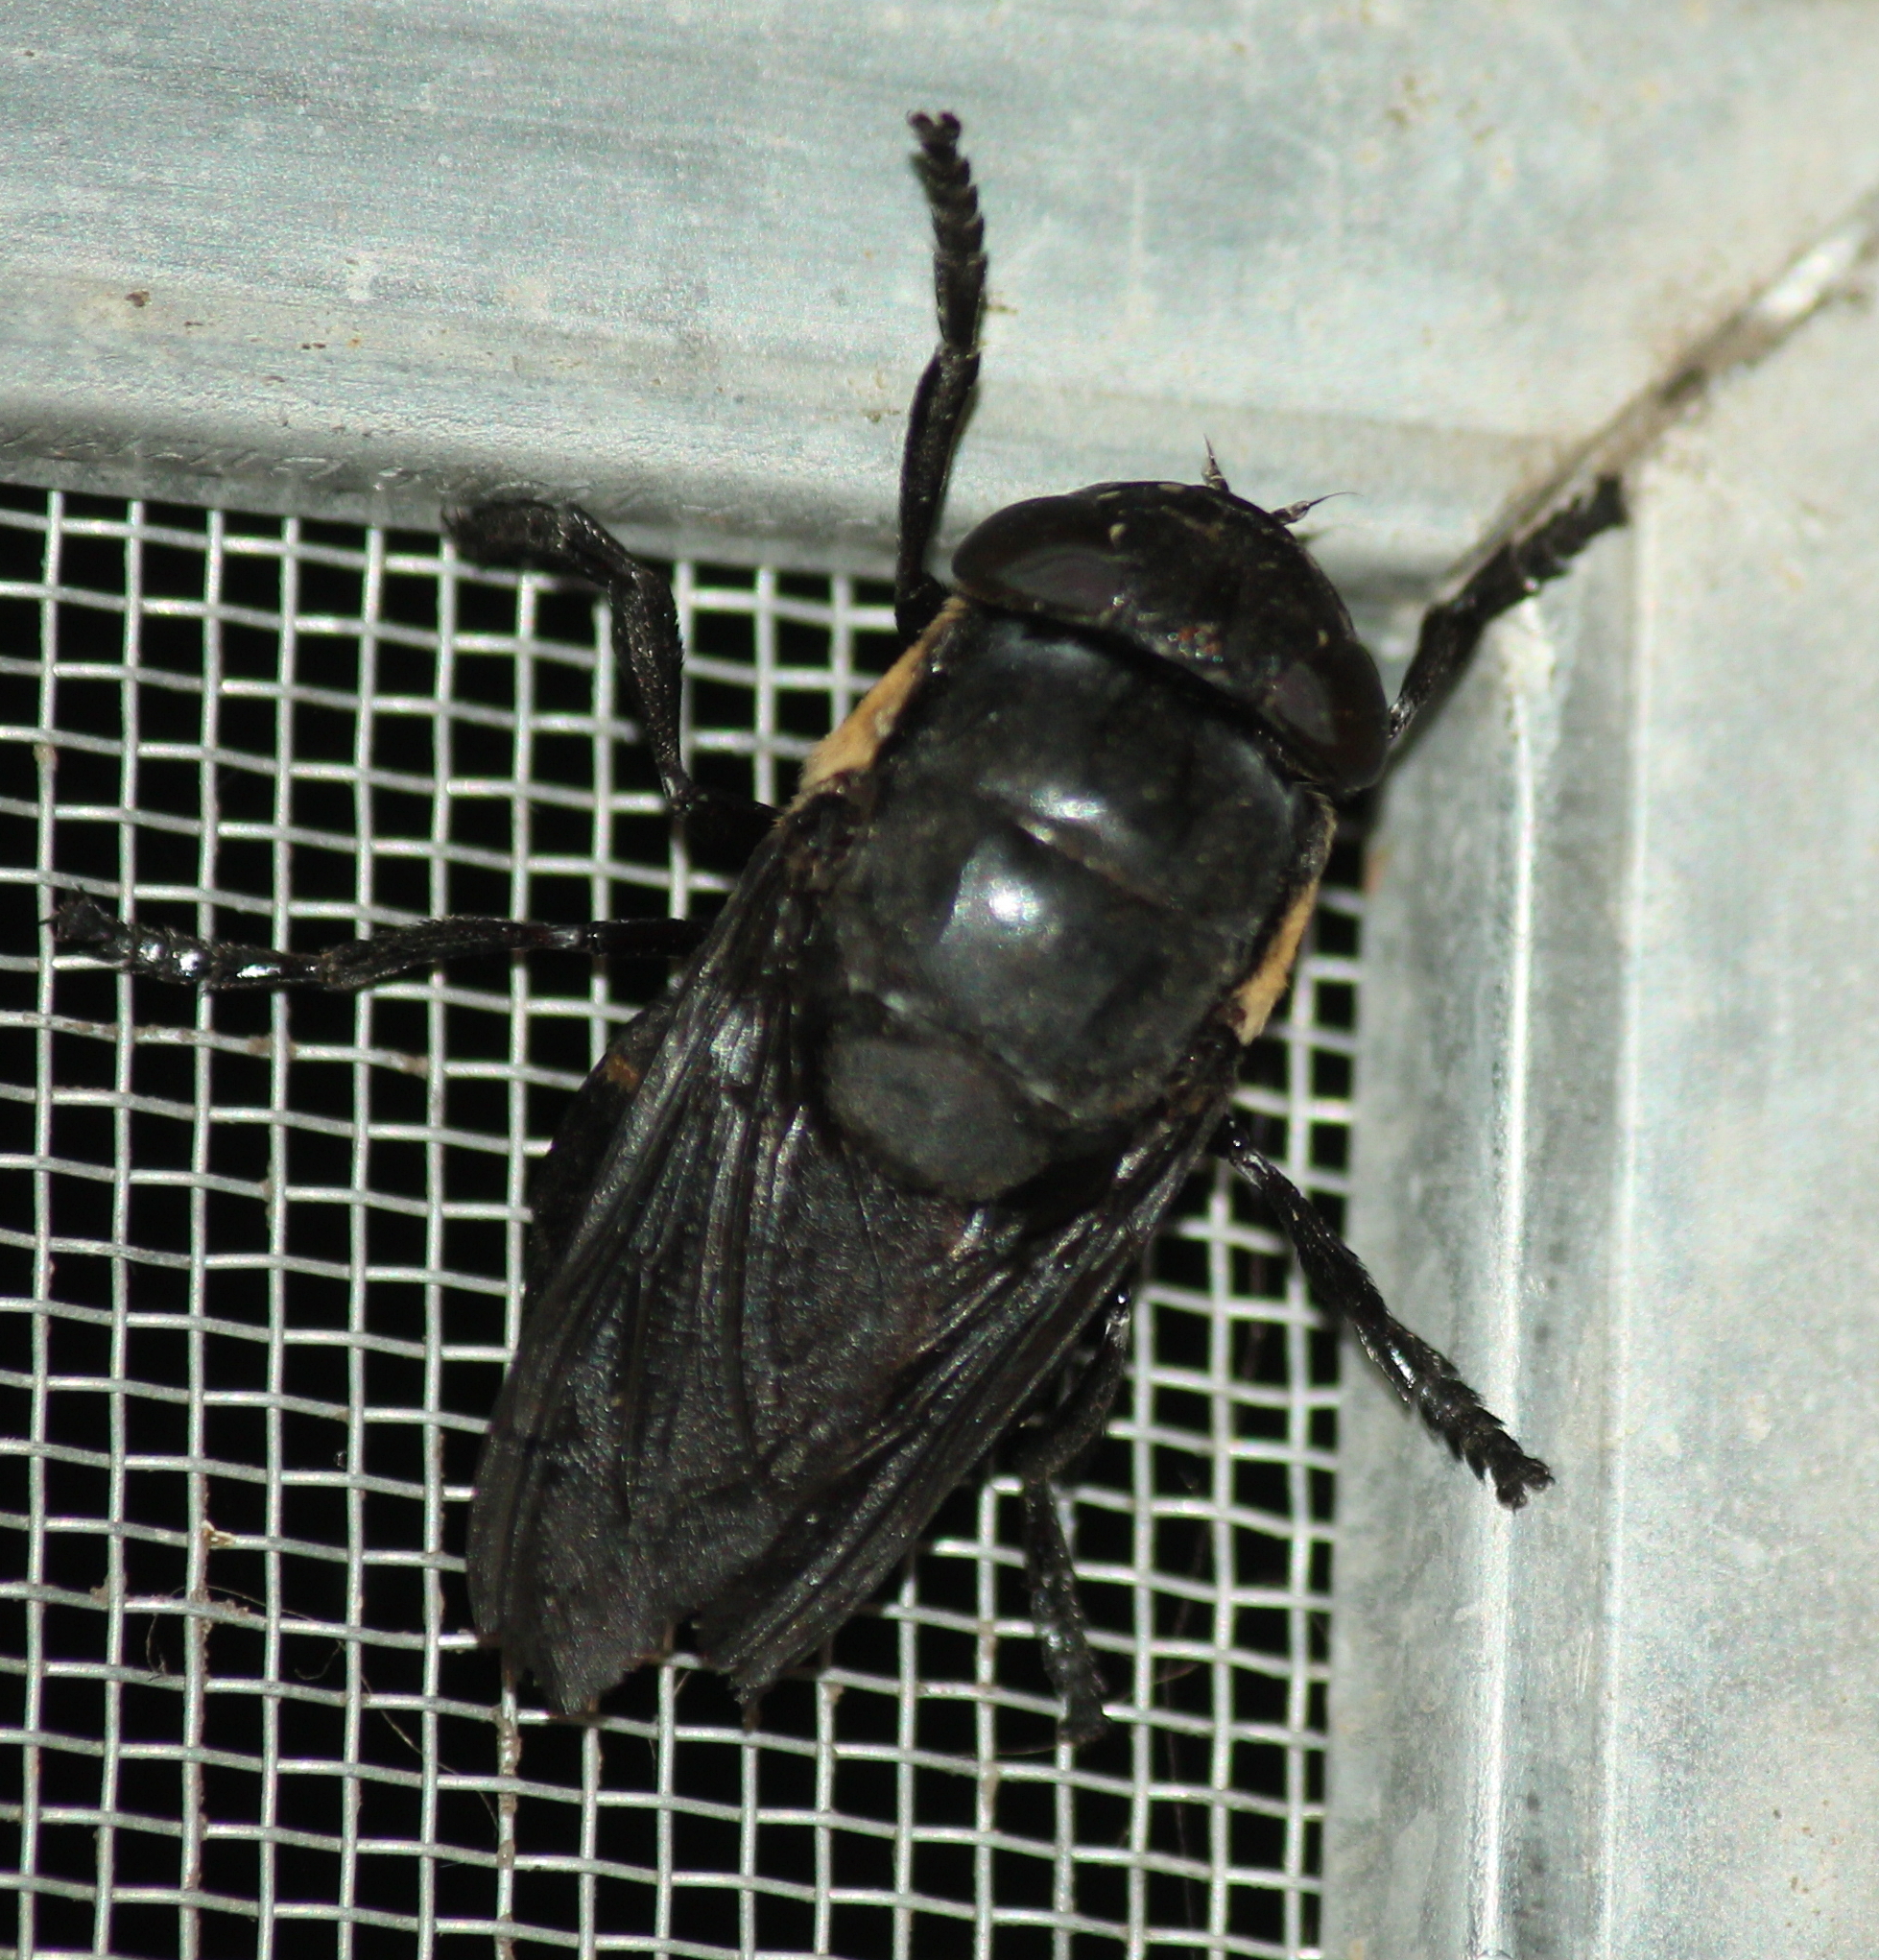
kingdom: Animalia
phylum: Arthropoda
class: Insecta
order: Diptera
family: Oestridae
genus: Cuterebra
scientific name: Cuterebra americana
